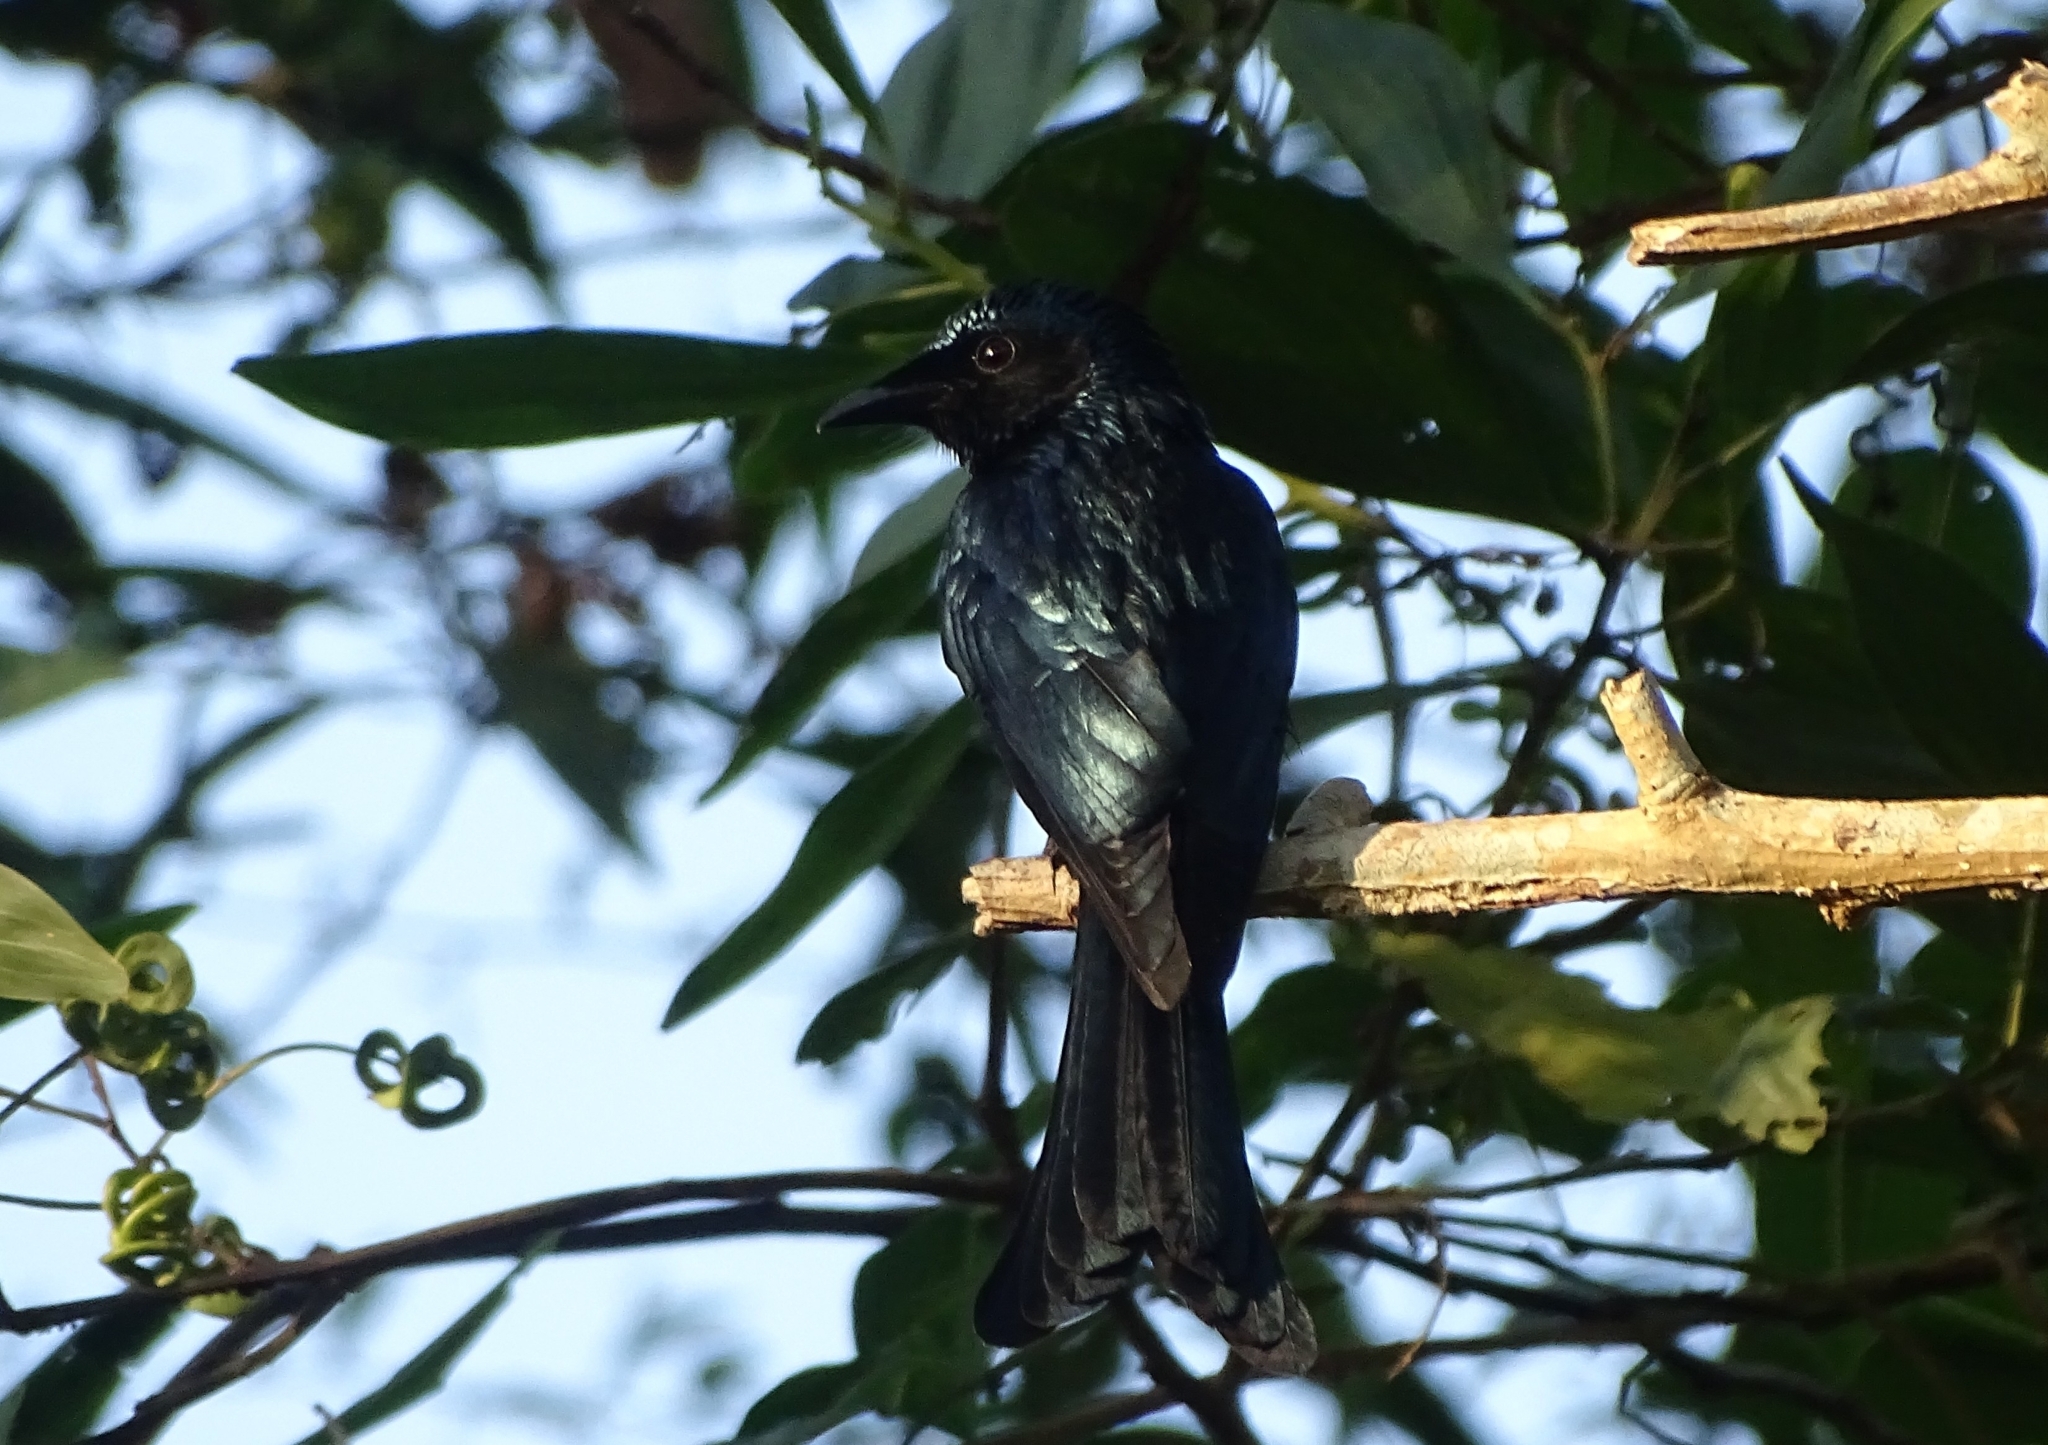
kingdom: Animalia
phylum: Chordata
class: Aves
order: Passeriformes
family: Dicruridae
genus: Dicrurus
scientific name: Dicrurus aeneus
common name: Bronzed drongo
